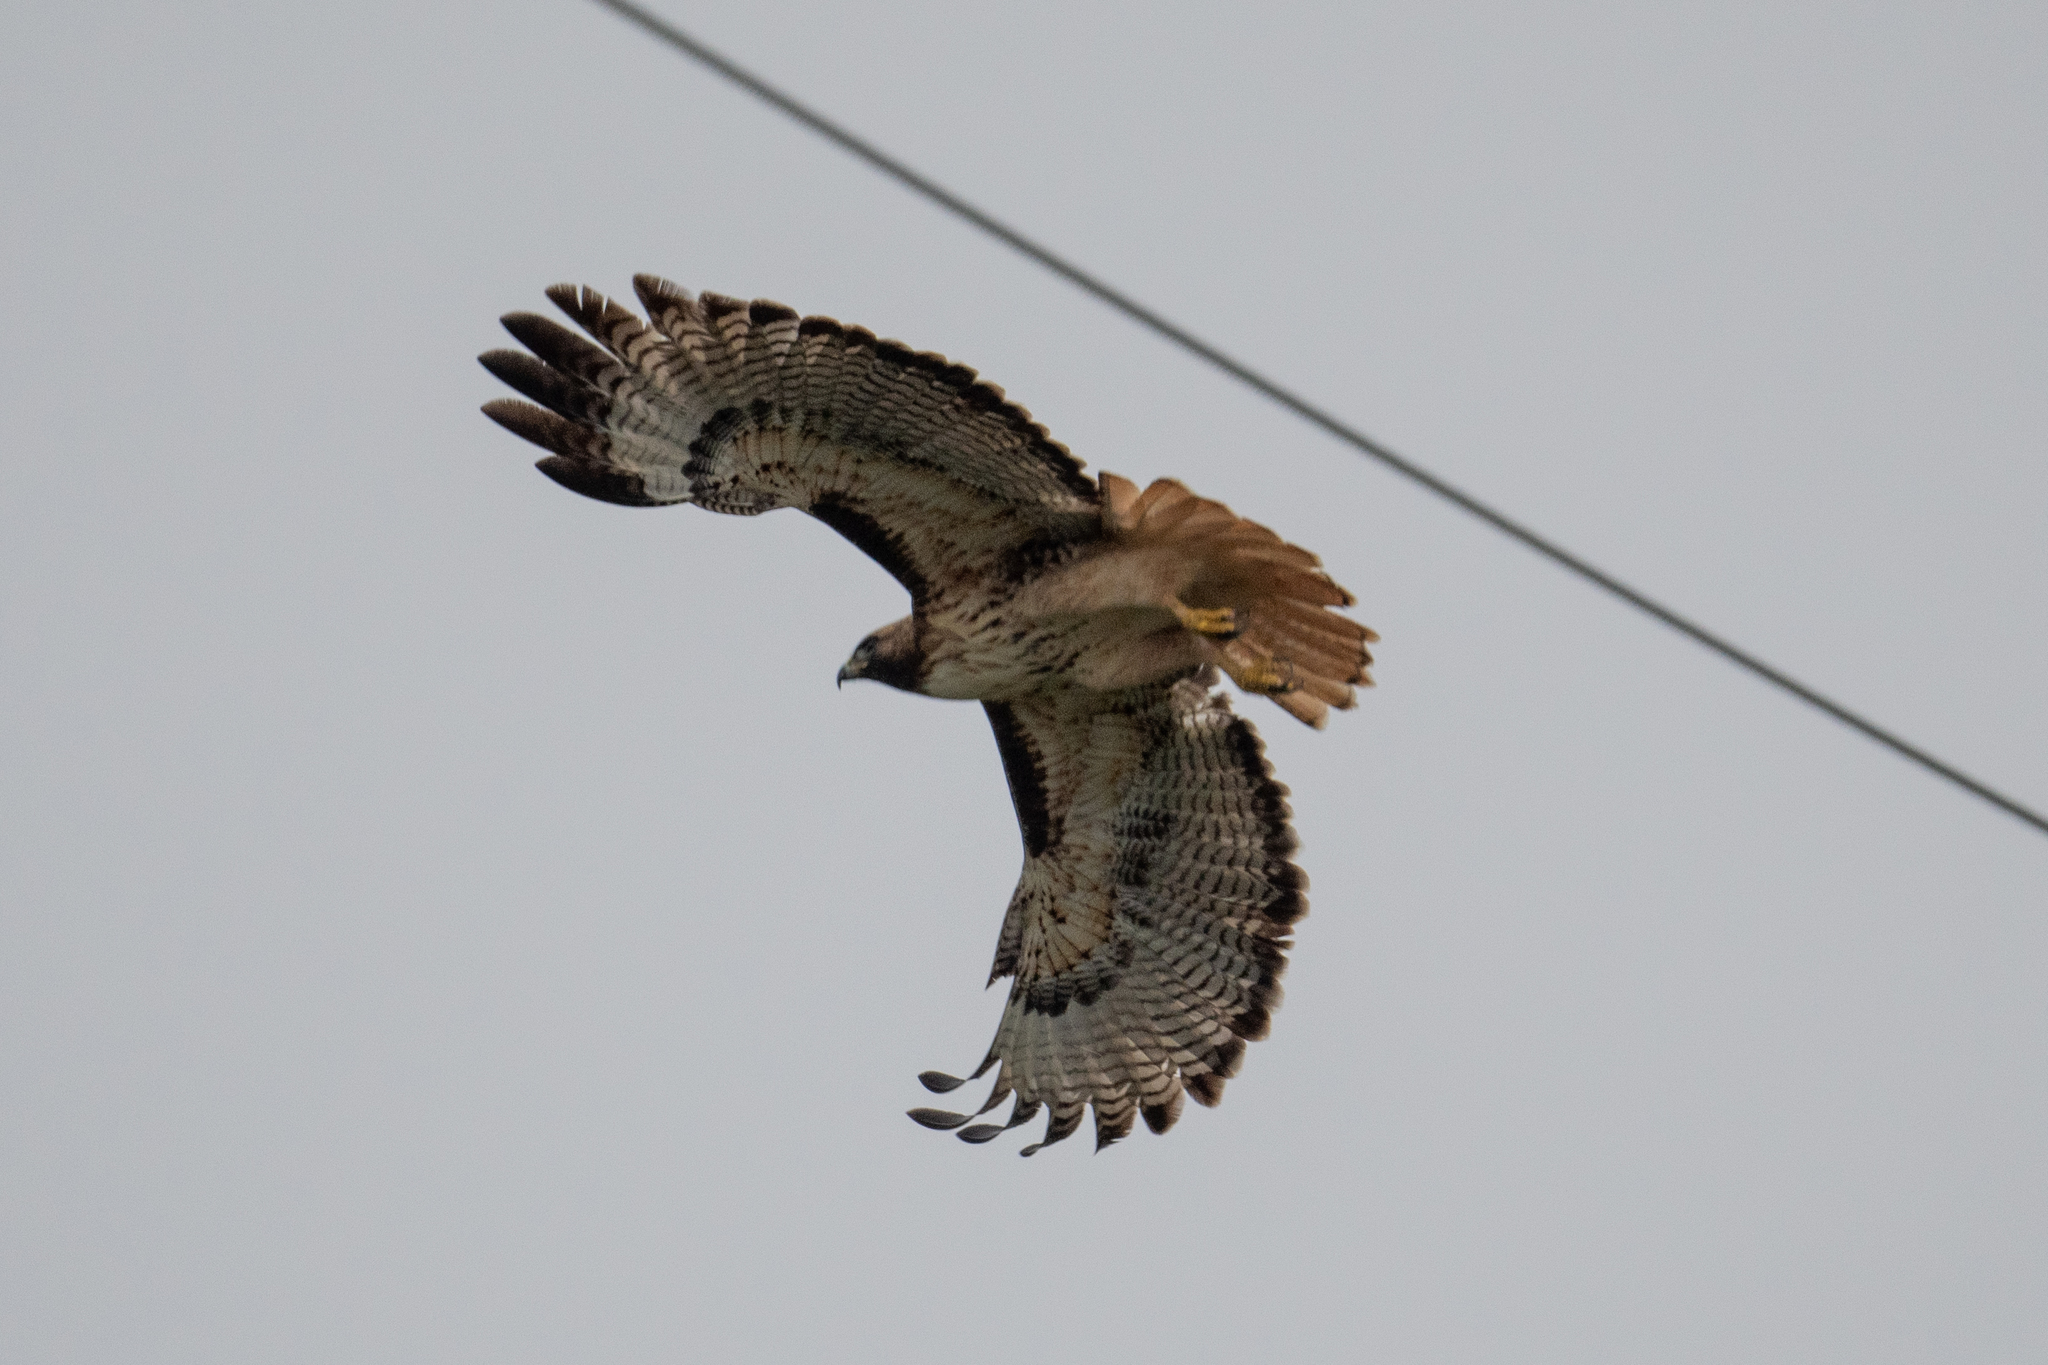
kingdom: Animalia
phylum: Chordata
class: Aves
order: Accipitriformes
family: Accipitridae
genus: Buteo
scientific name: Buteo jamaicensis
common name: Red-tailed hawk
